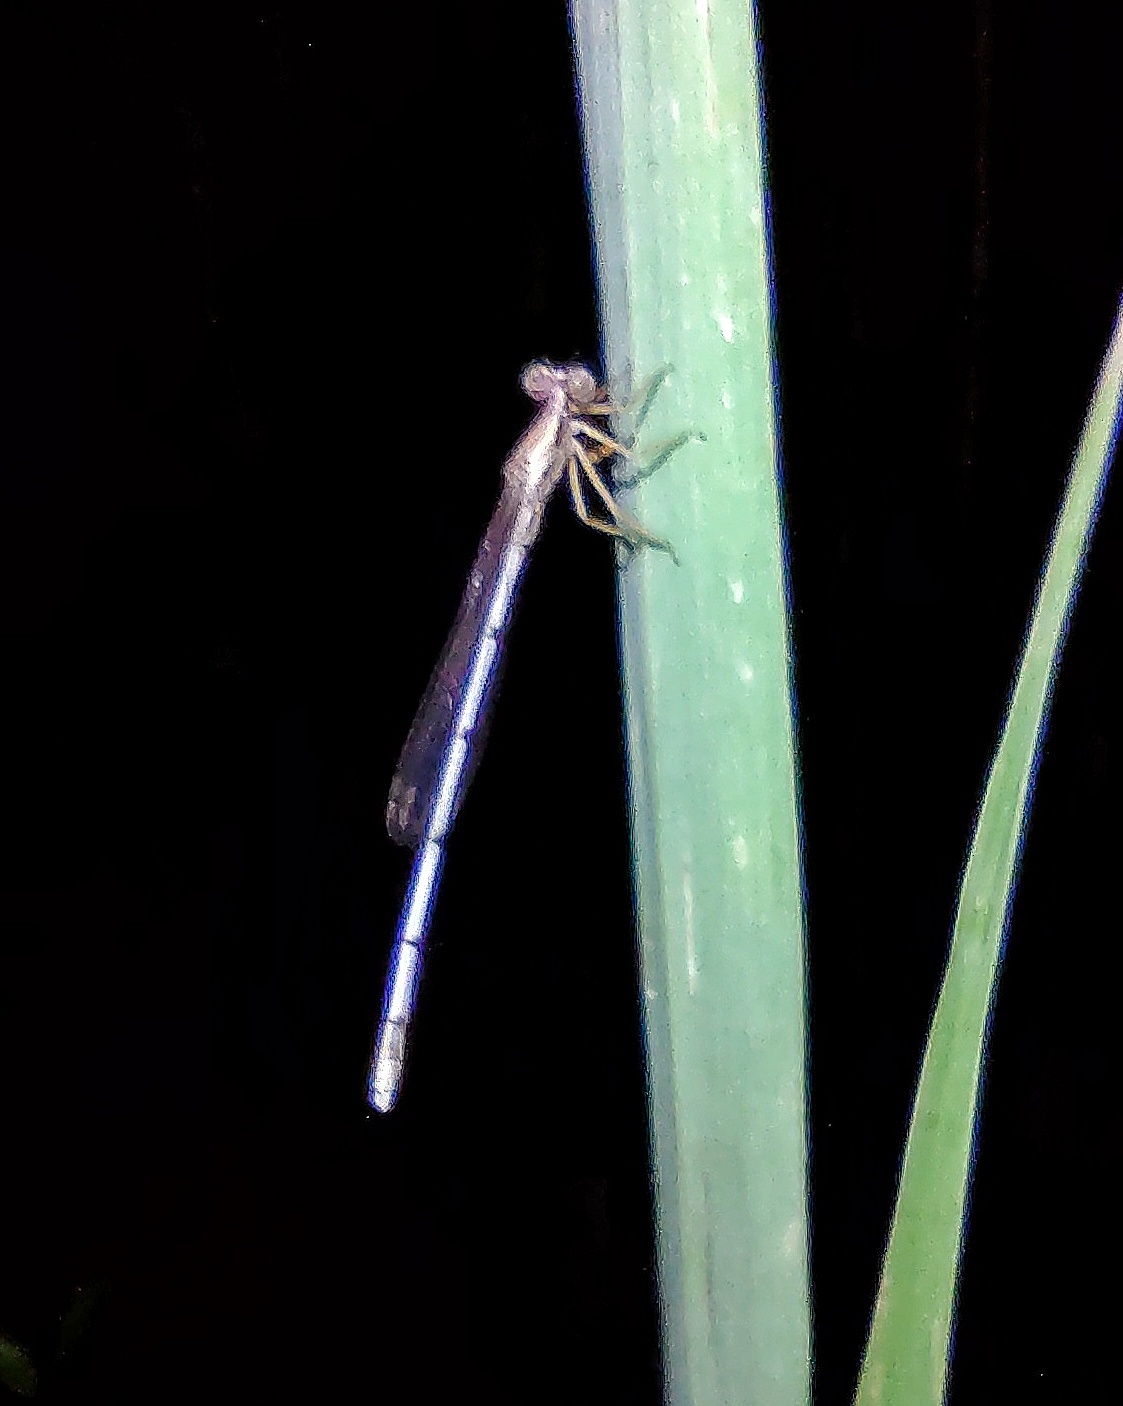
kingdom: Animalia
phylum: Arthropoda
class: Insecta
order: Odonata
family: Platycnemididae
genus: Copera
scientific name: Copera marginipes
